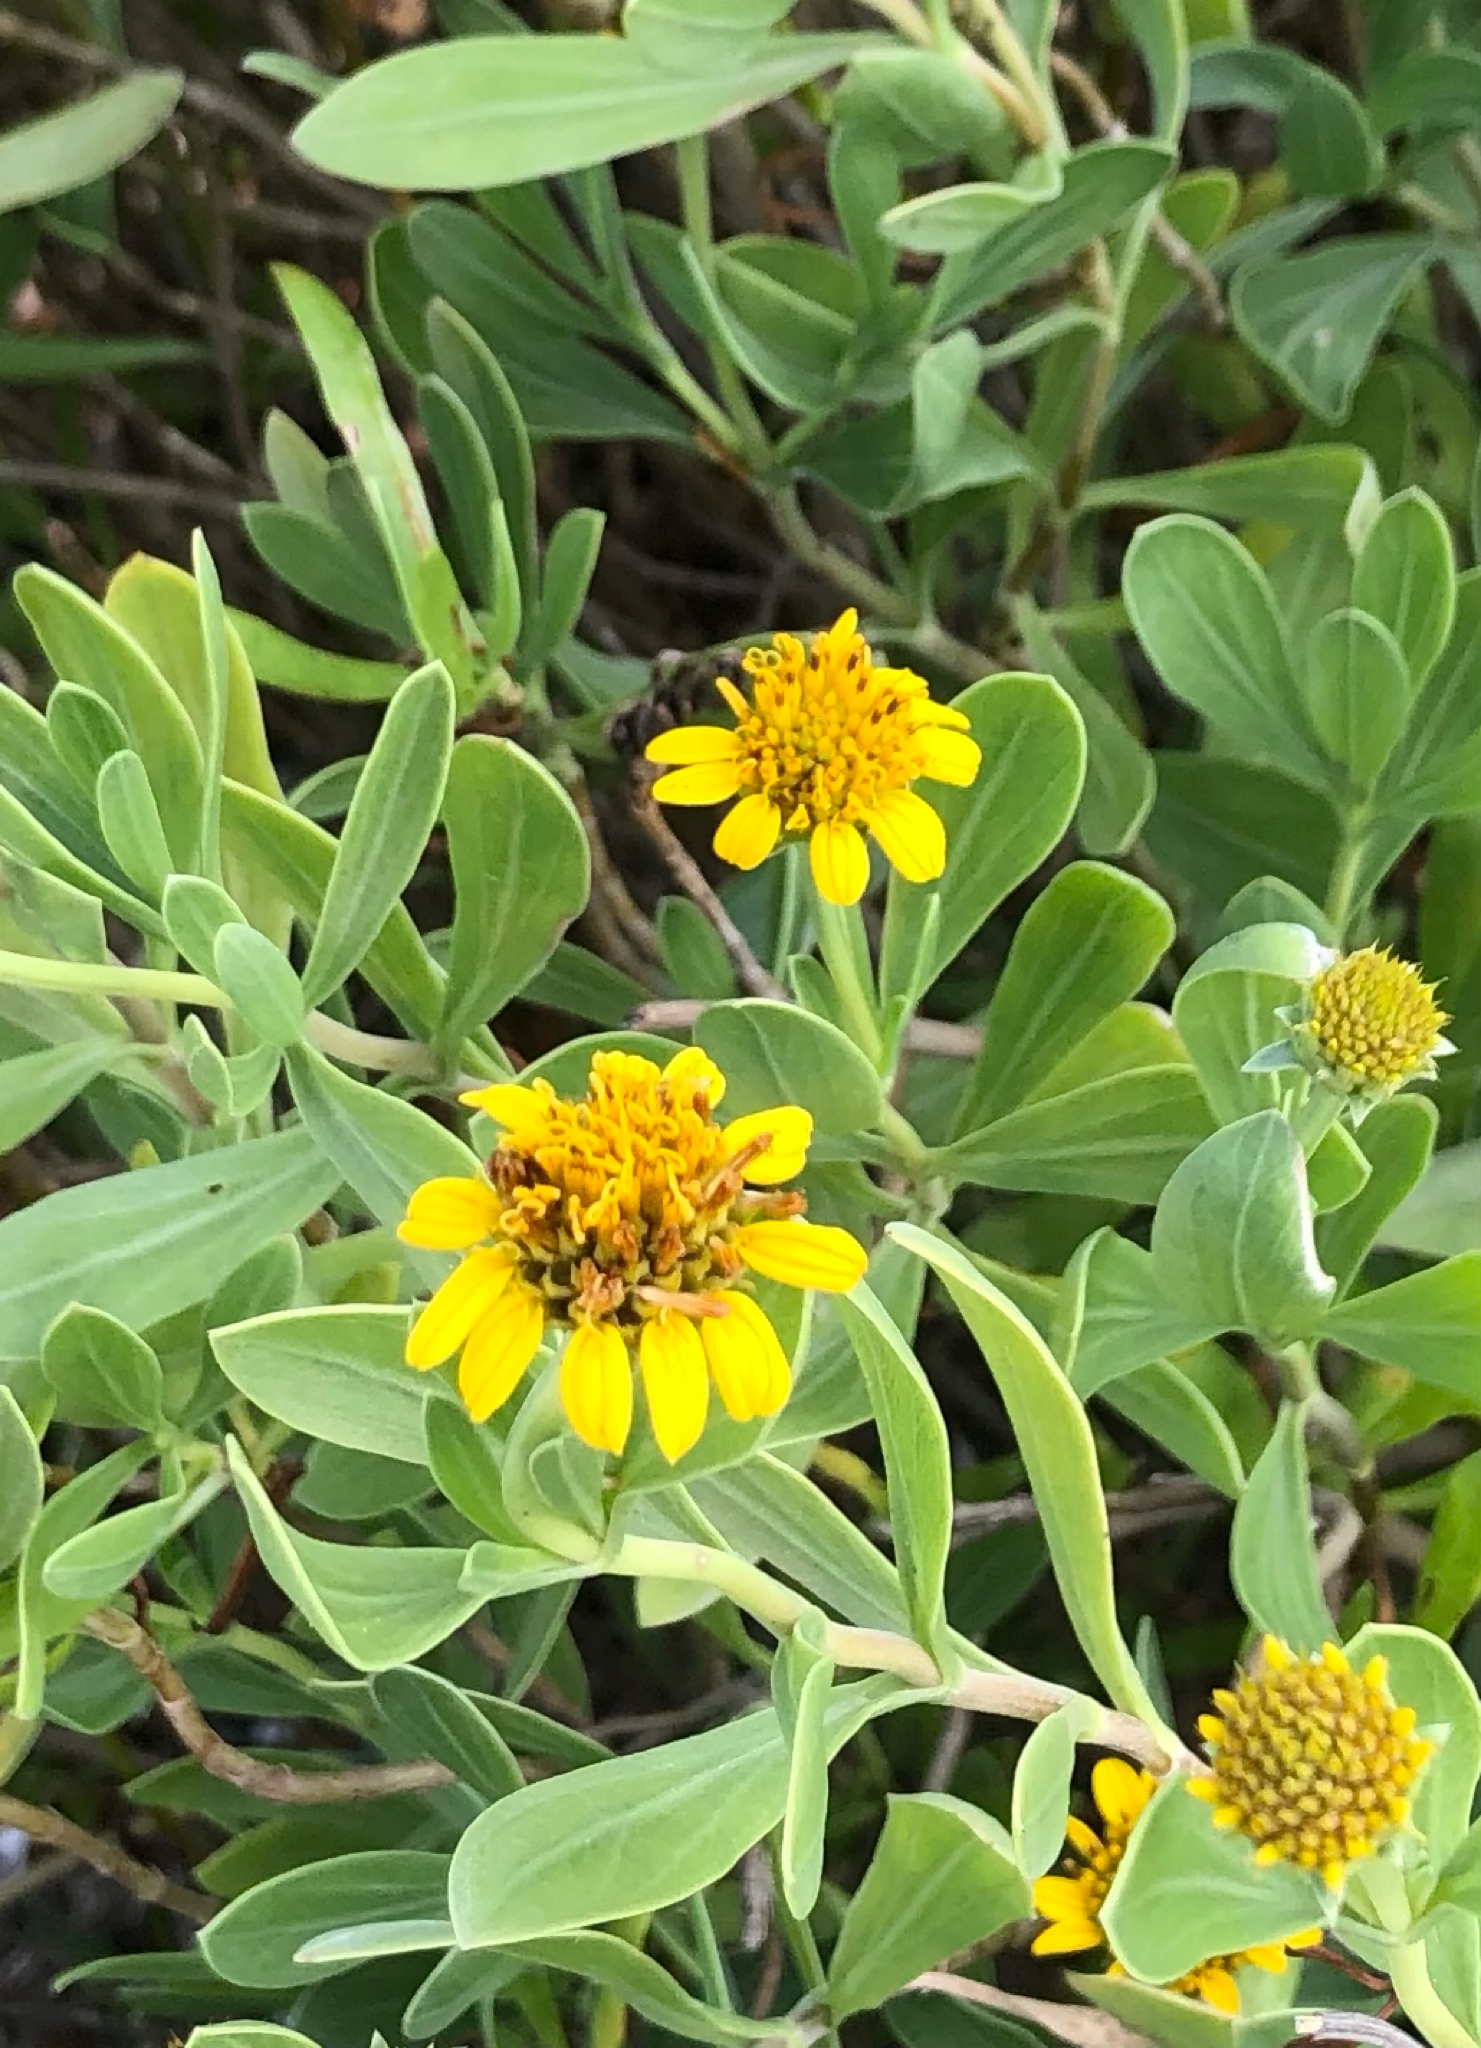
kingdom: Plantae
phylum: Tracheophyta
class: Magnoliopsida
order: Asterales
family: Asteraceae
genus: Borrichia
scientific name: Borrichia frutescens
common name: Sea oxeye
